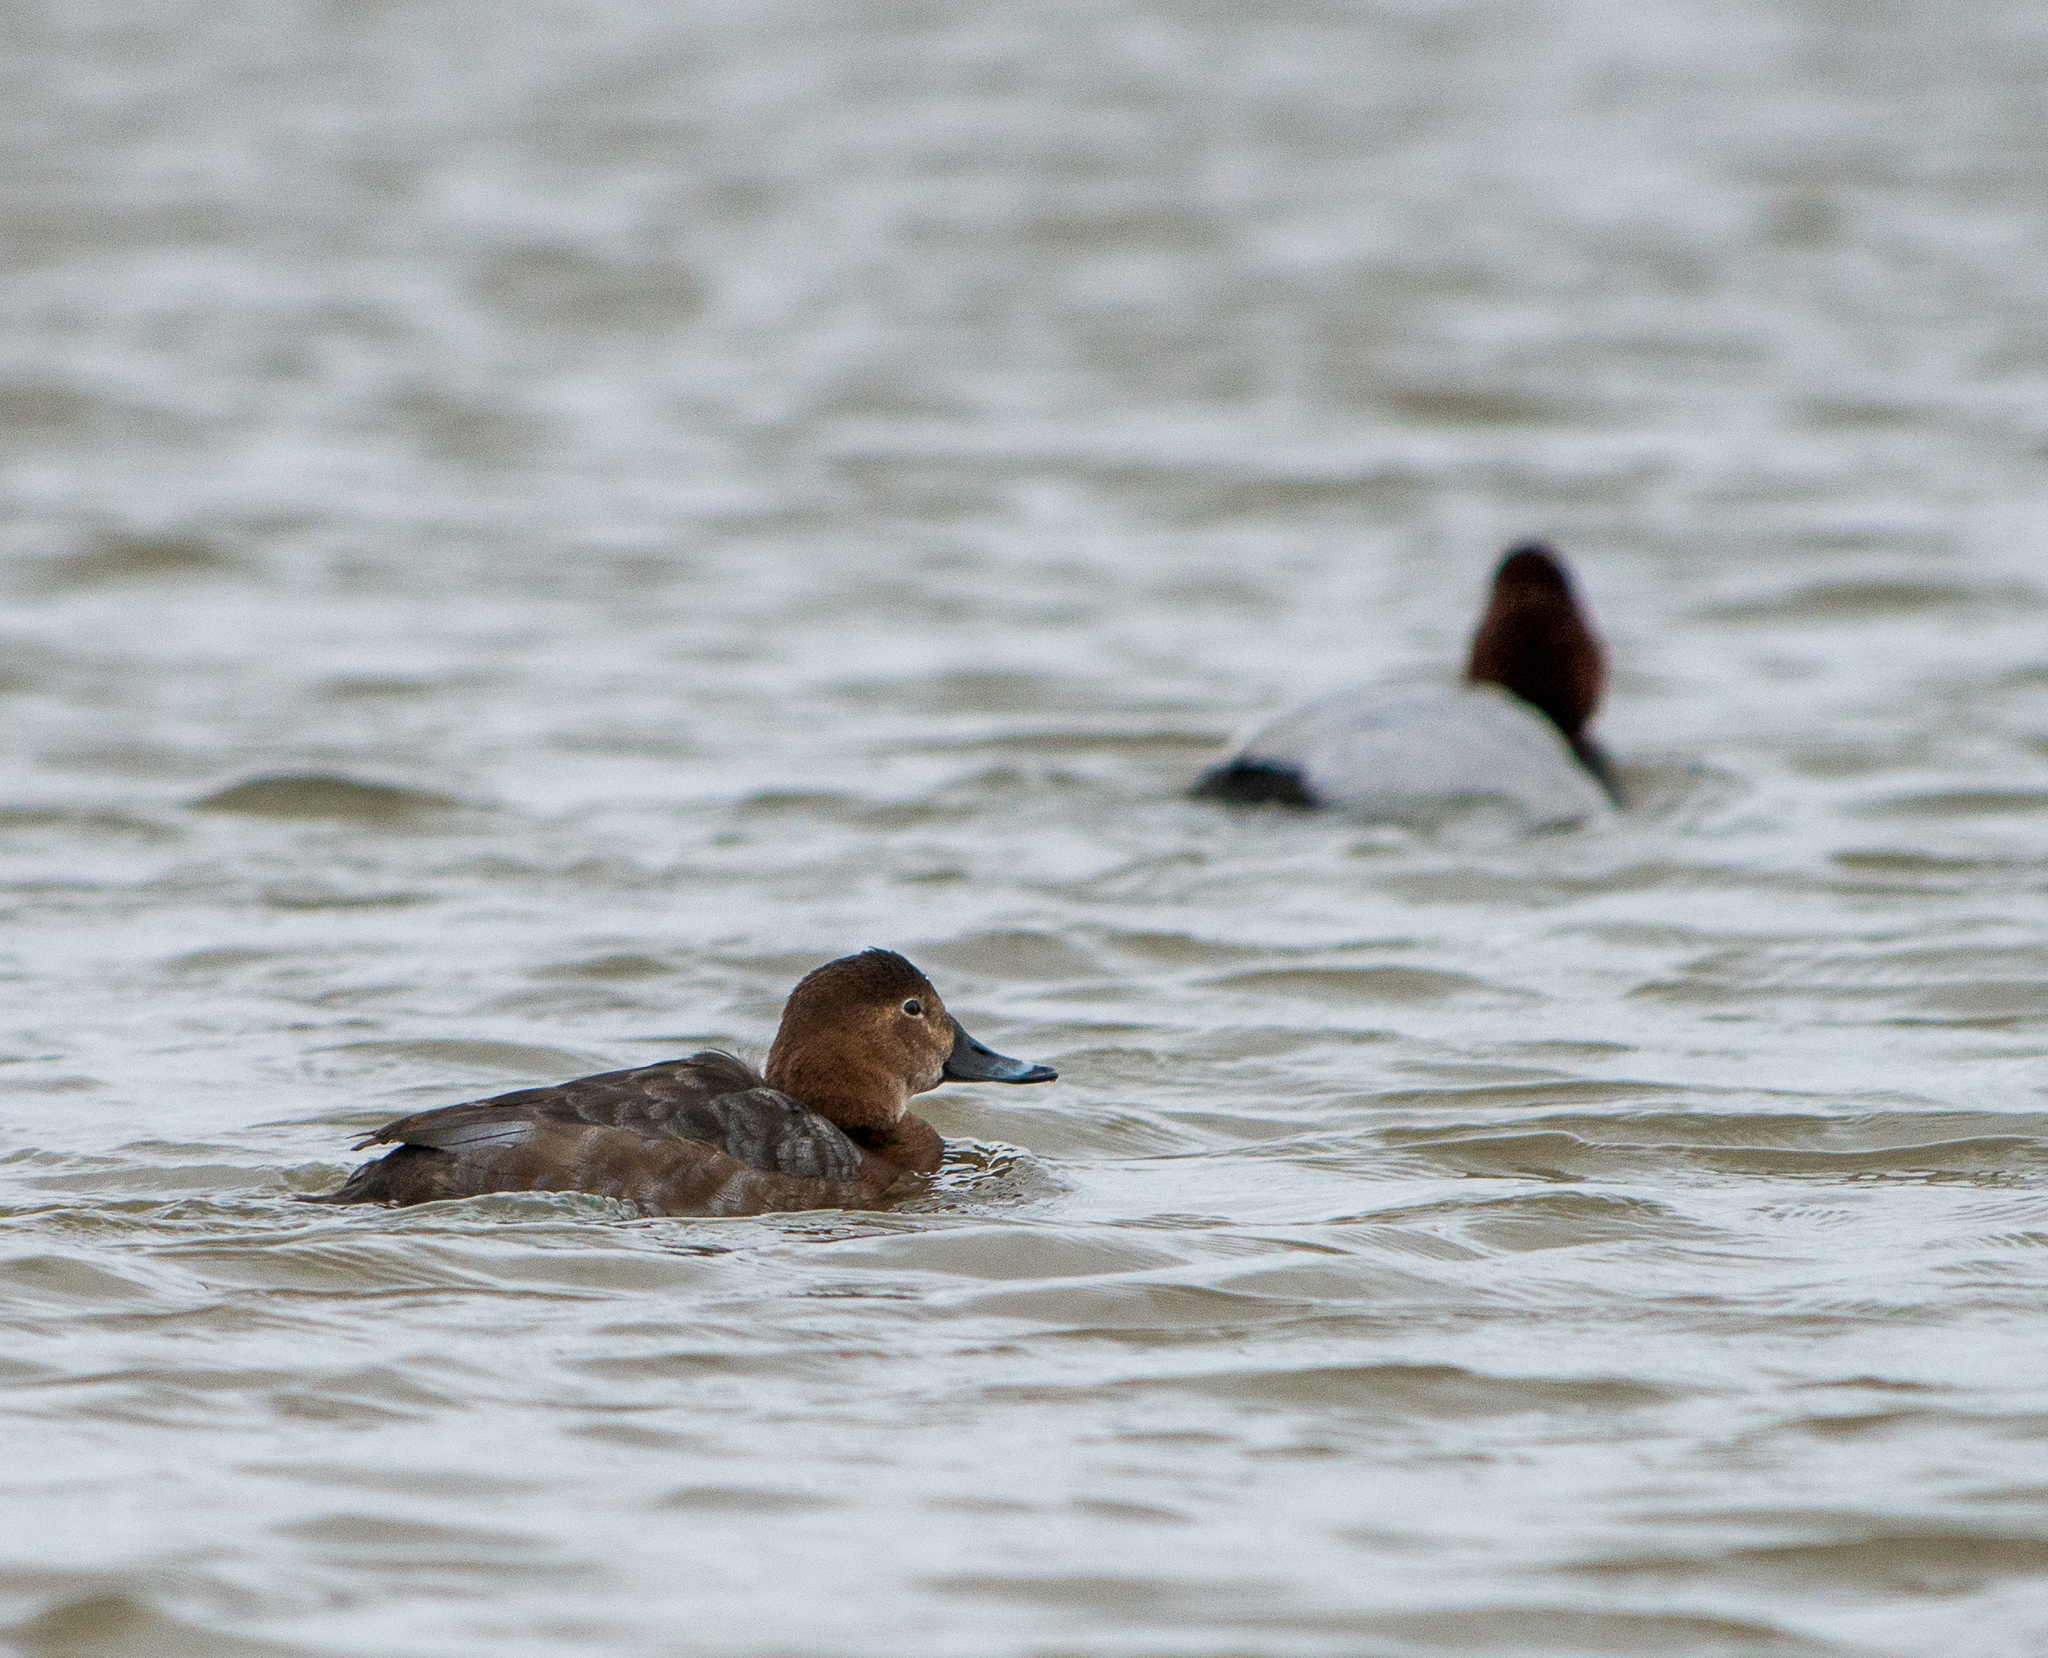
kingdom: Animalia
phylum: Chordata
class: Aves
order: Anseriformes
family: Anatidae
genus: Aythya
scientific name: Aythya ferina
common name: Common pochard
